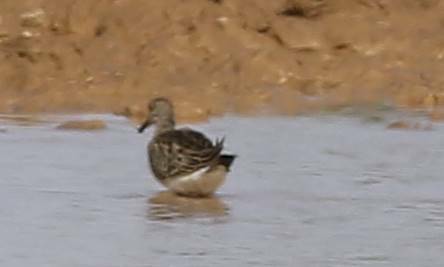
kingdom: Animalia
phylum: Chordata
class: Aves
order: Charadriiformes
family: Scolopacidae
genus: Calidris
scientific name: Calidris pugnax
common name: Ruff
